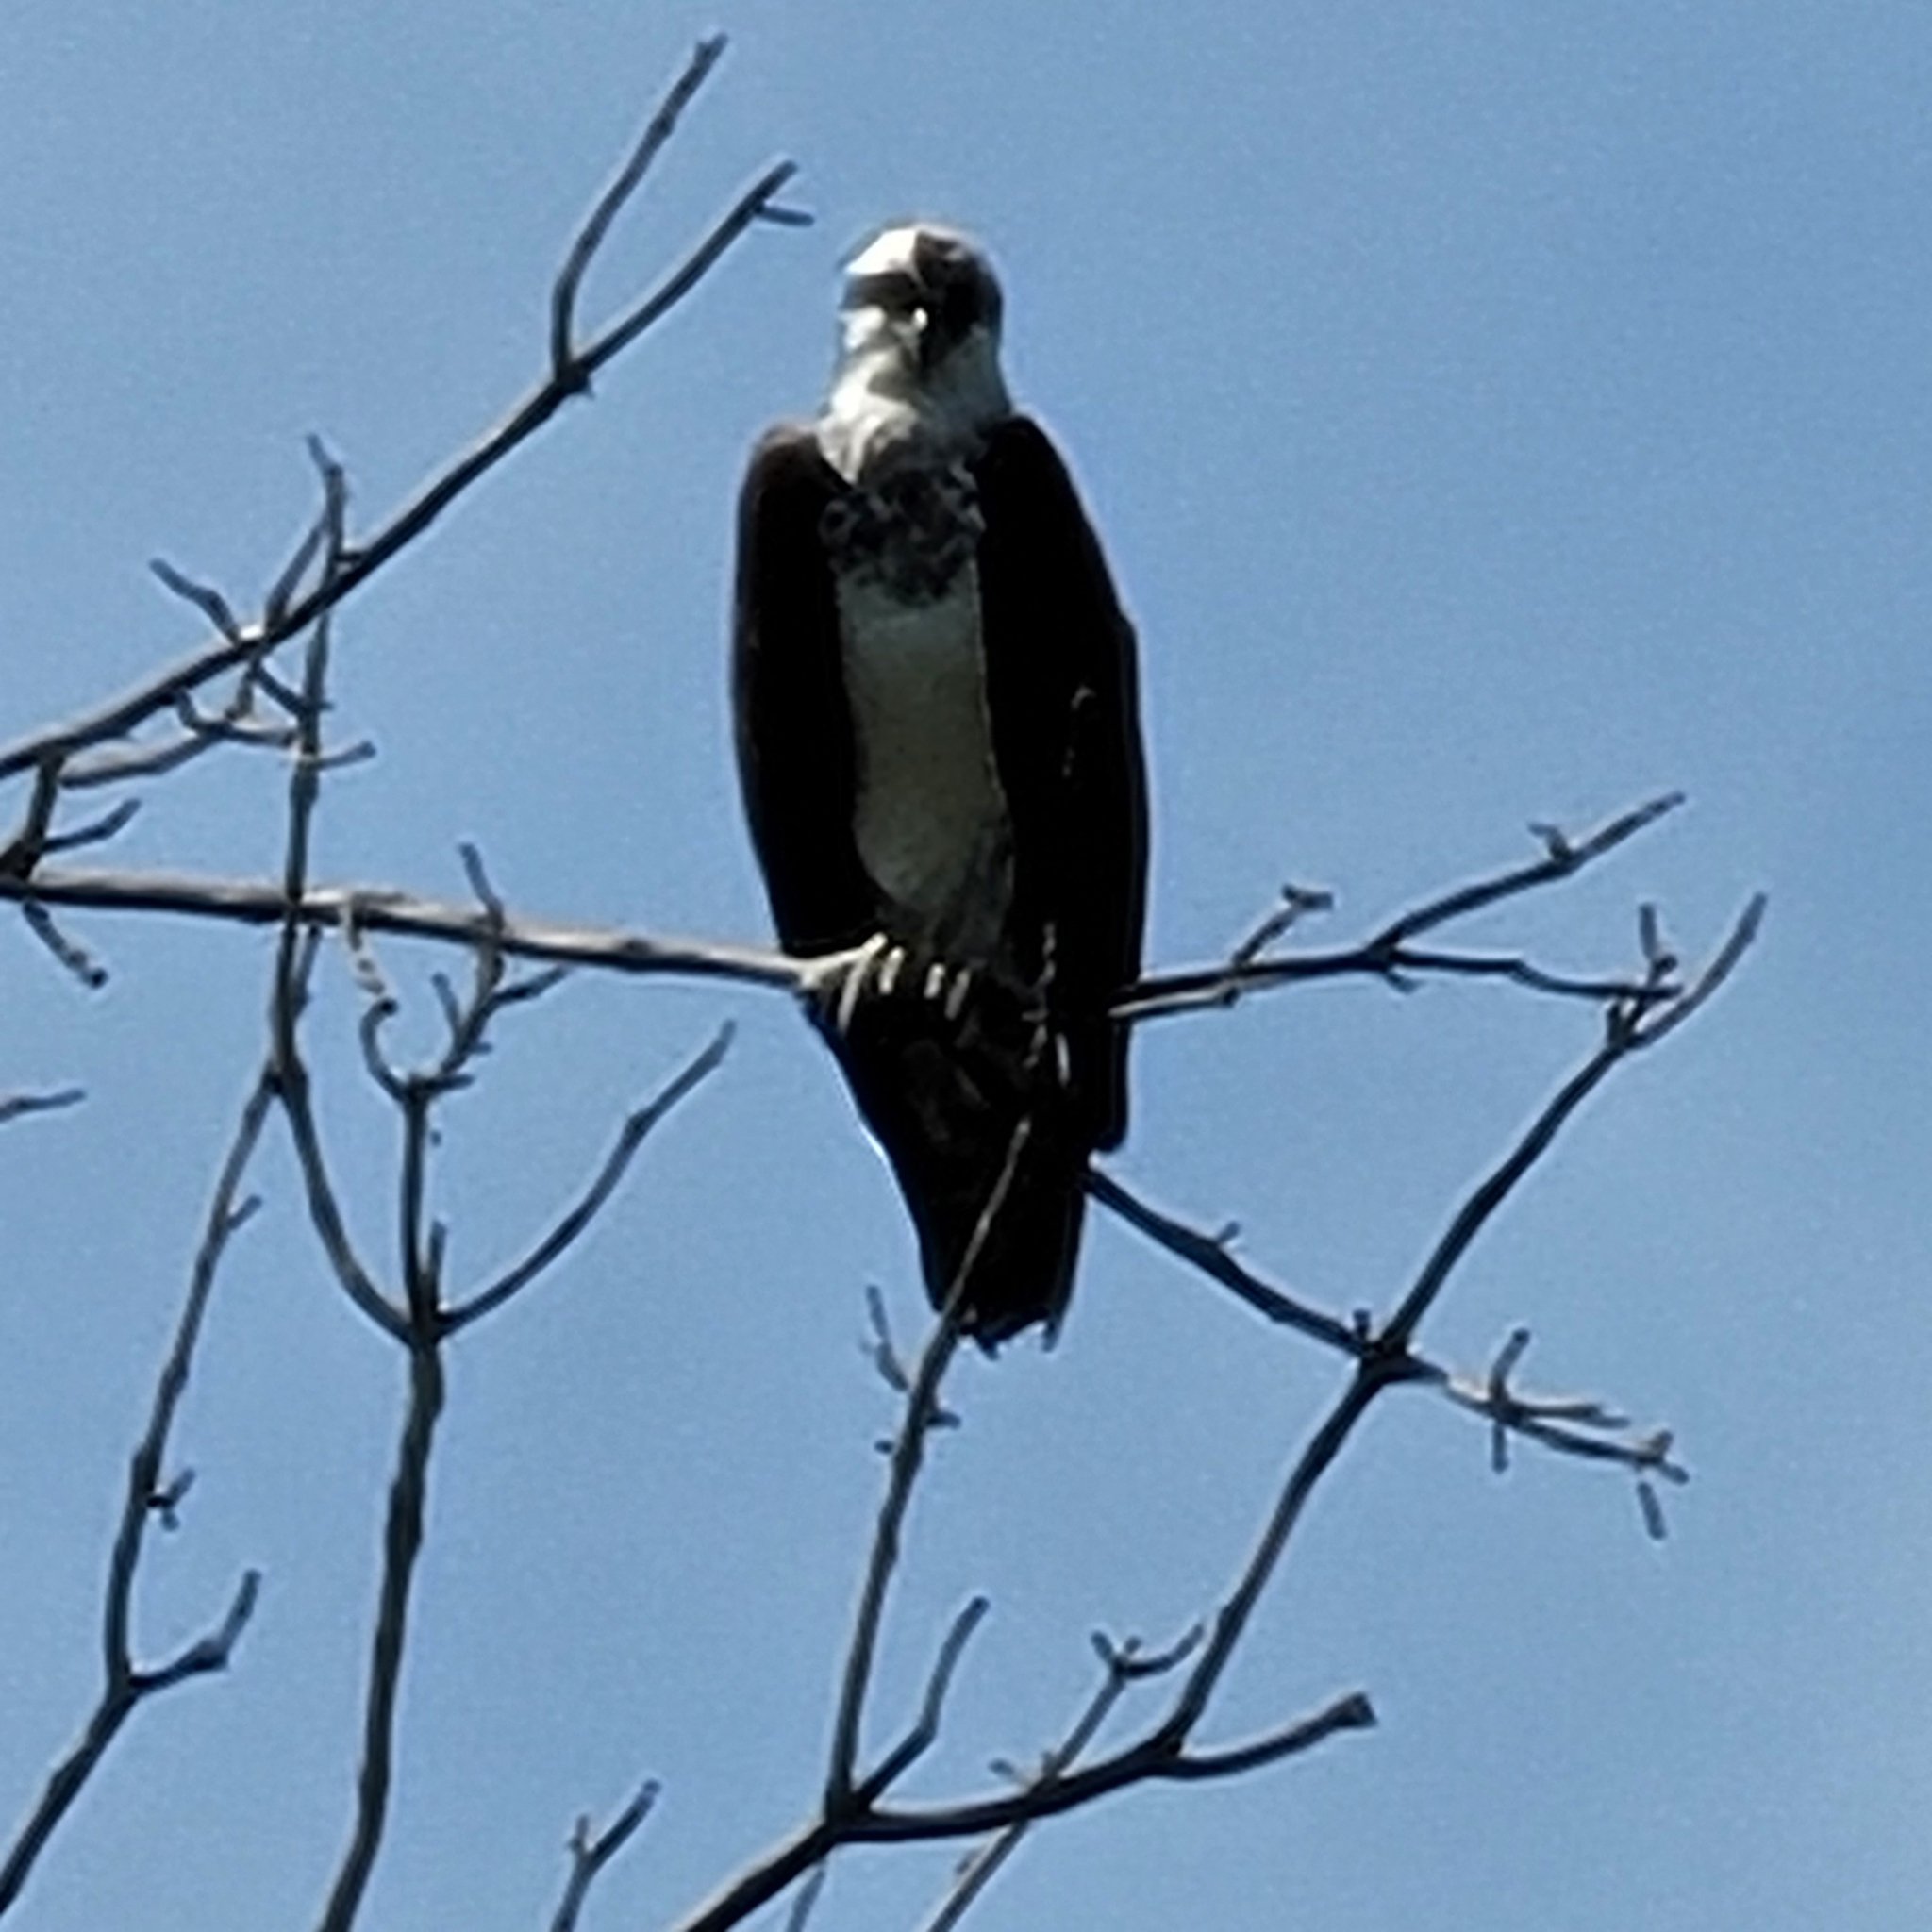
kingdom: Animalia
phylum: Chordata
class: Aves
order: Accipitriformes
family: Pandionidae
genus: Pandion
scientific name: Pandion haliaetus
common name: Osprey
